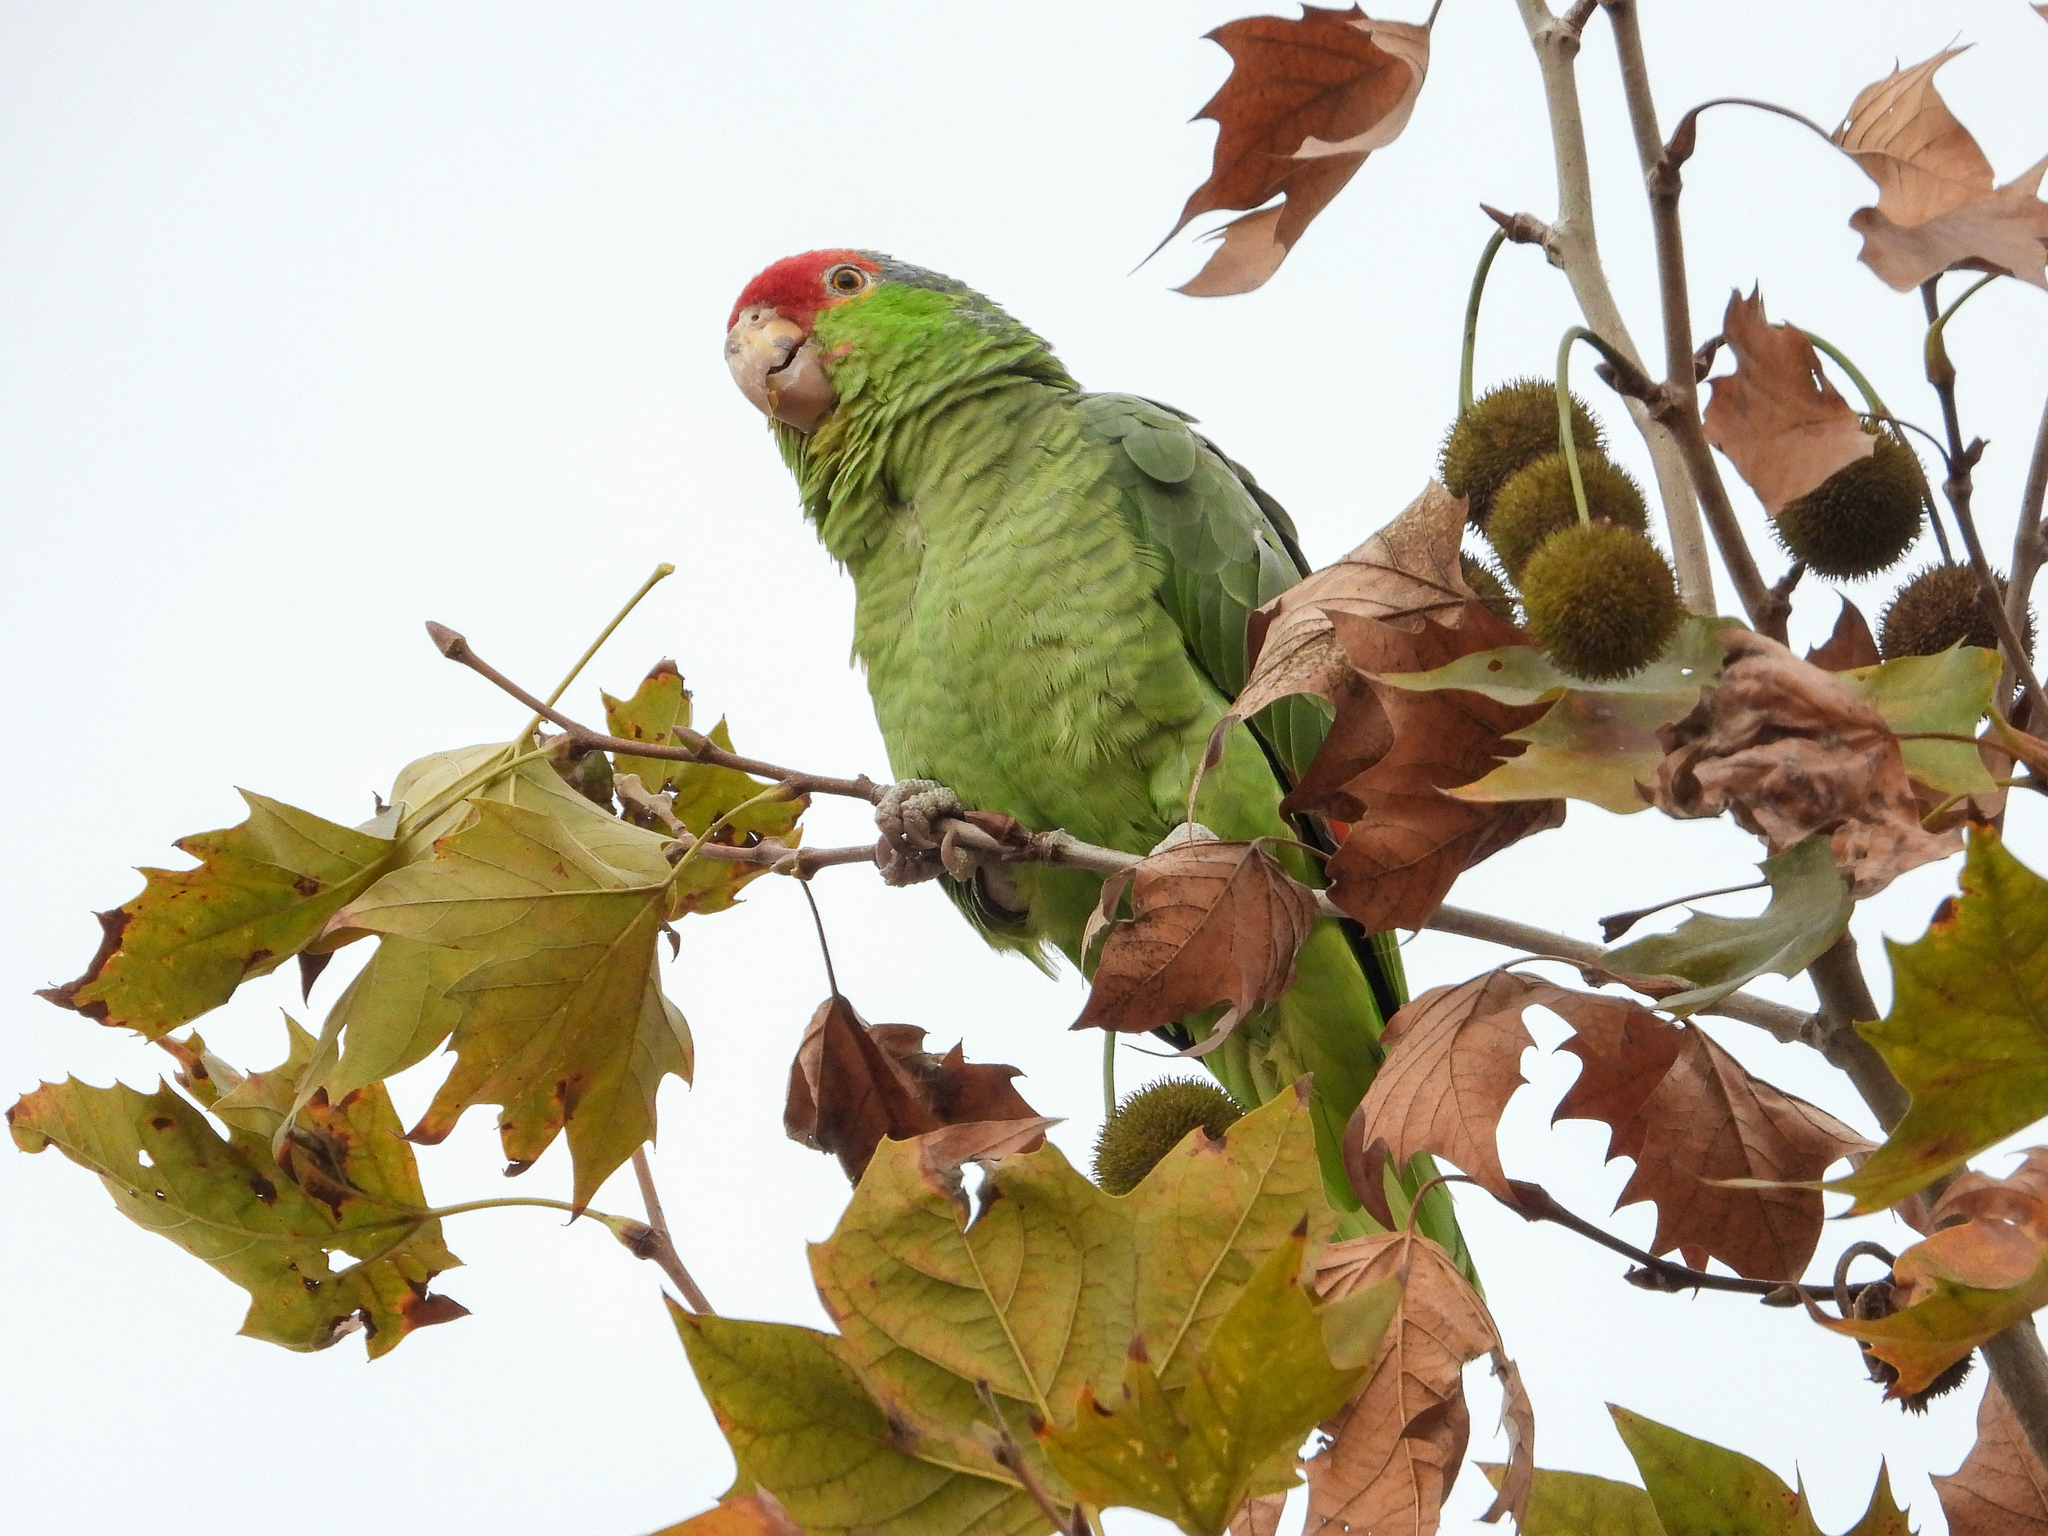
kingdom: Animalia
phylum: Chordata
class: Aves
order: Psittaciformes
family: Psittacidae
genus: Amazona
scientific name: Amazona viridigenalis
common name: Red-crowned amazon
